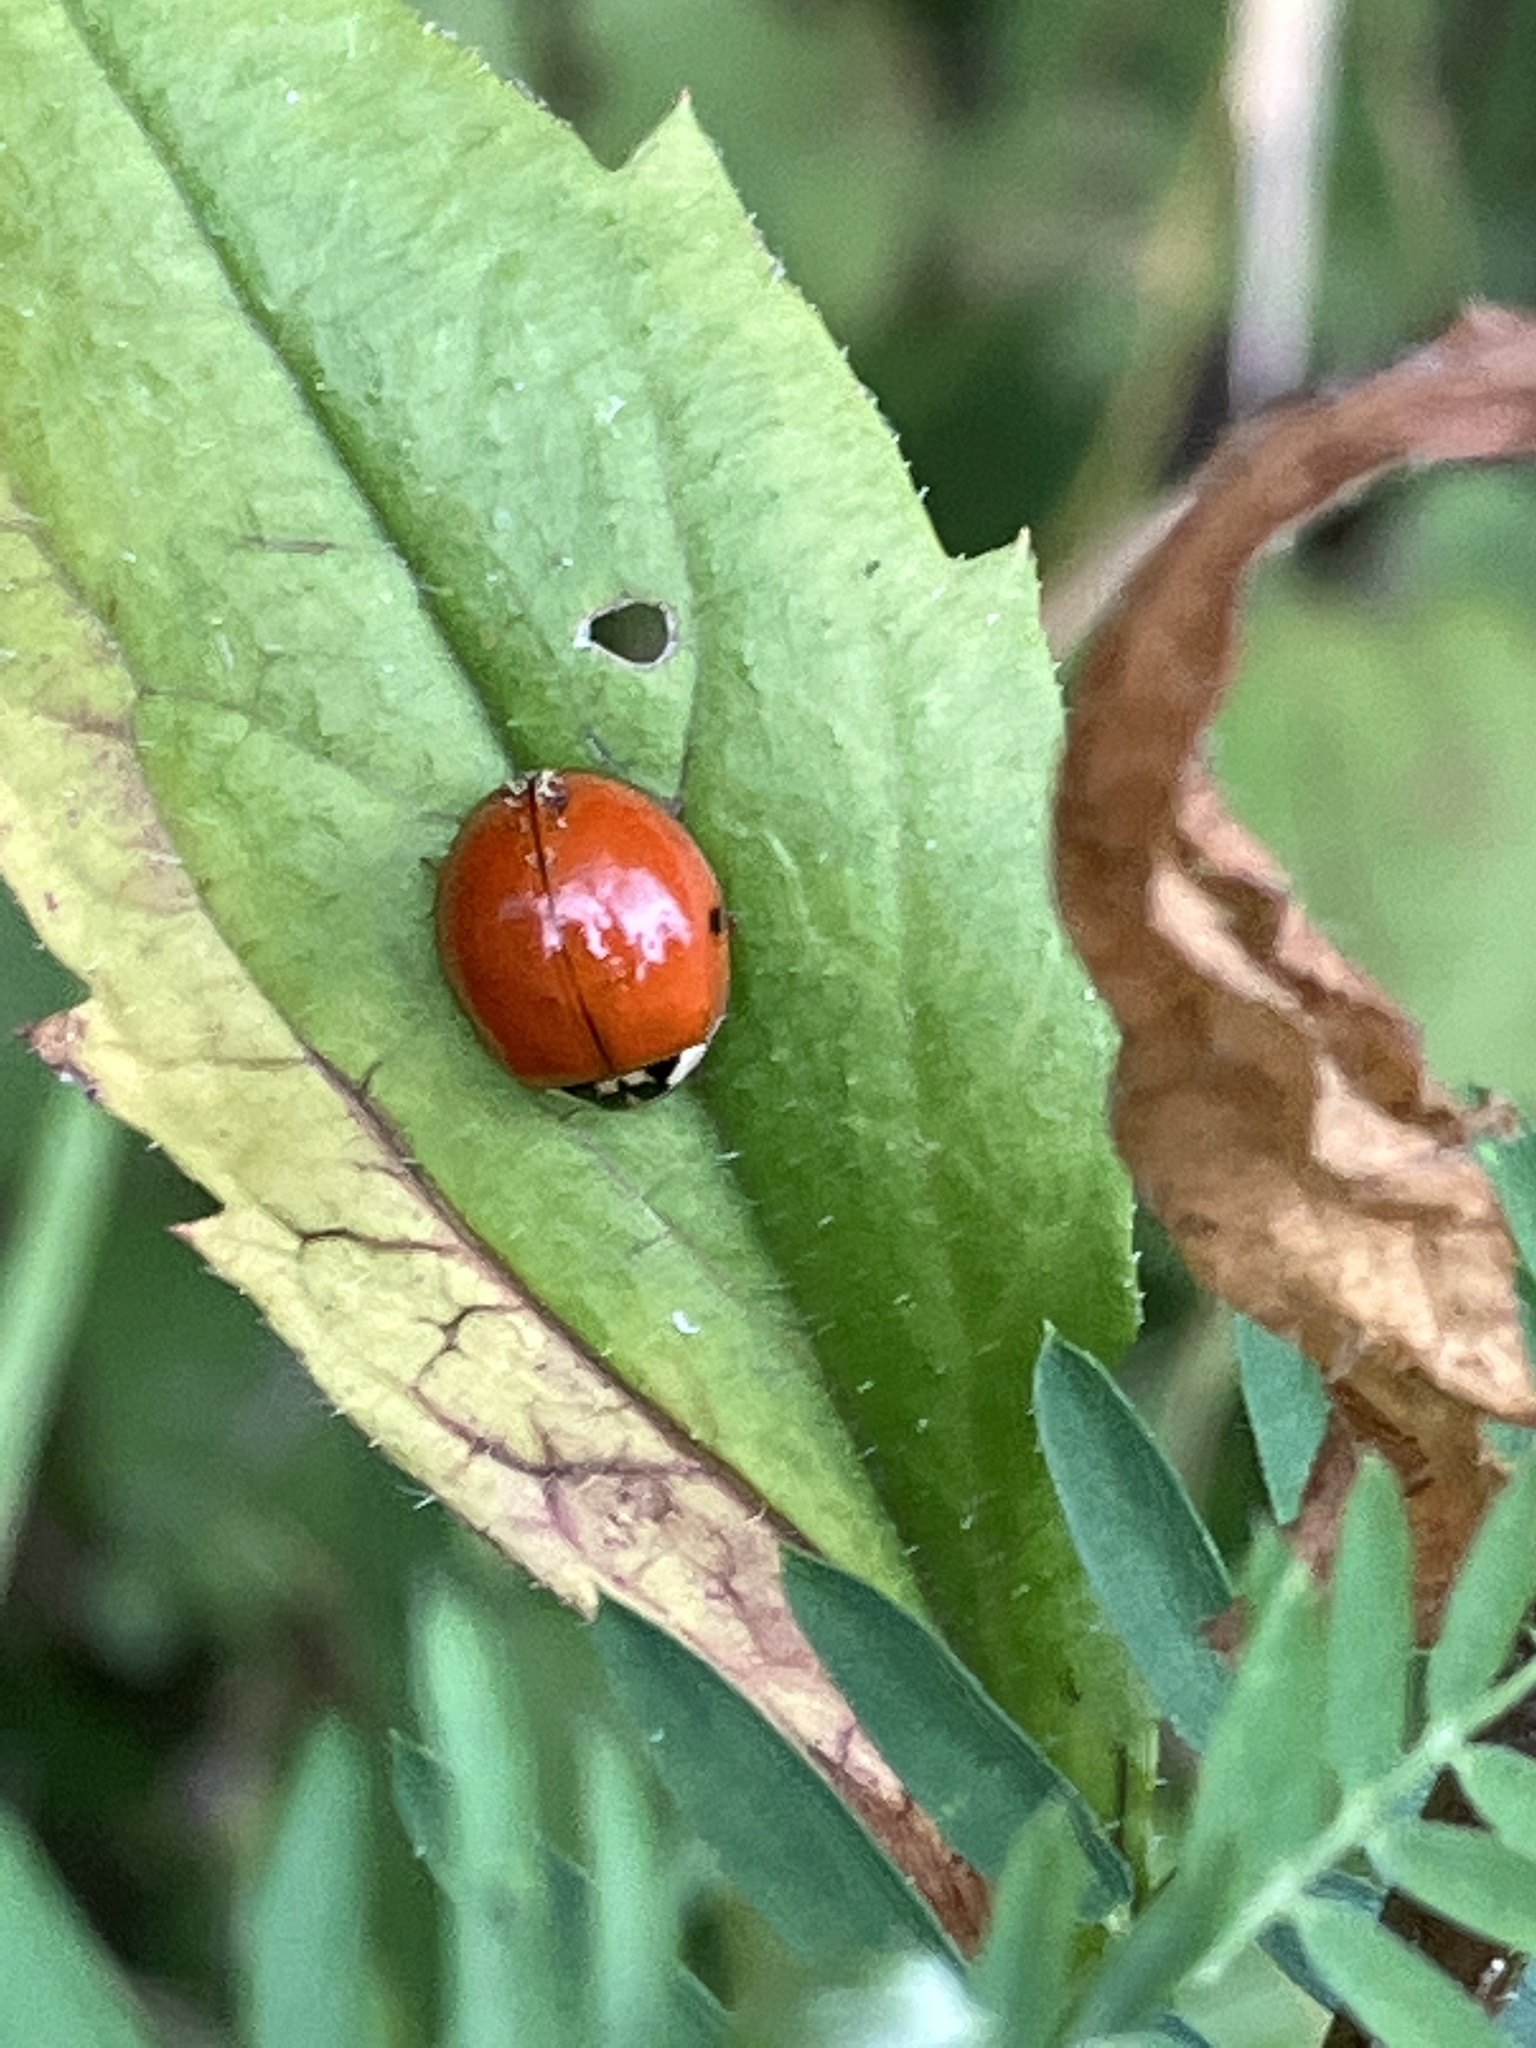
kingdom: Animalia
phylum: Arthropoda
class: Insecta
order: Coleoptera
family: Coccinellidae
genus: Harmonia
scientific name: Harmonia axyridis
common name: Harlequin ladybird
